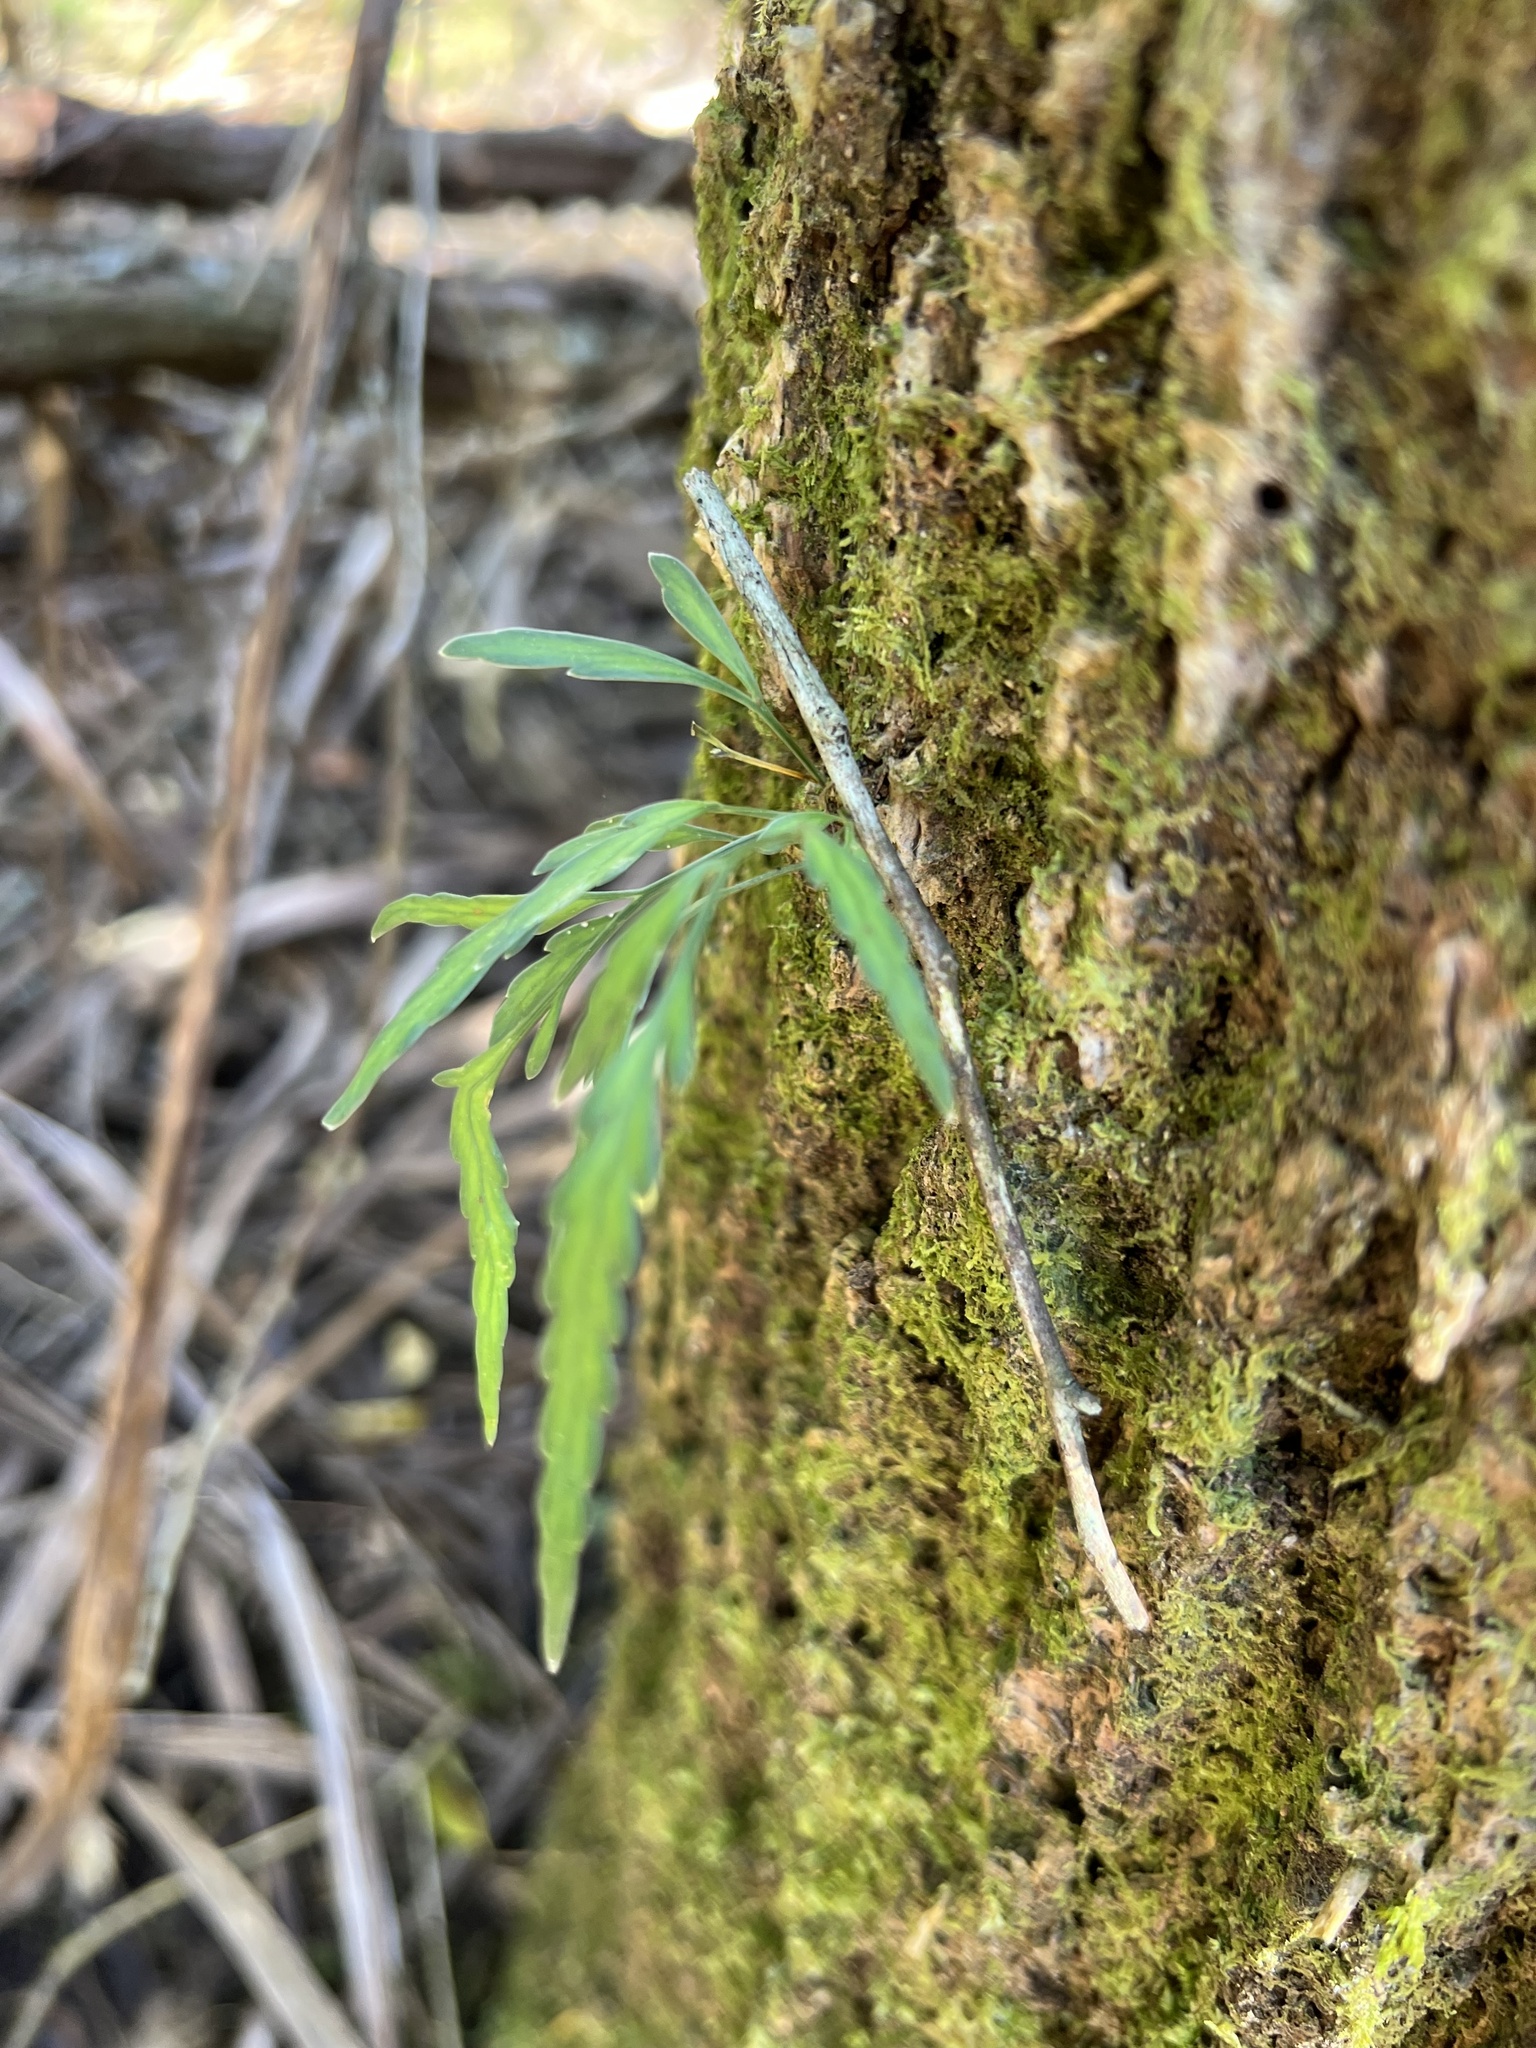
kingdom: Plantae
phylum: Tracheophyta
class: Polypodiopsida
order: Polypodiales
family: Aspleniaceae
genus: Asplenium
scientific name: Asplenium flaccidum
